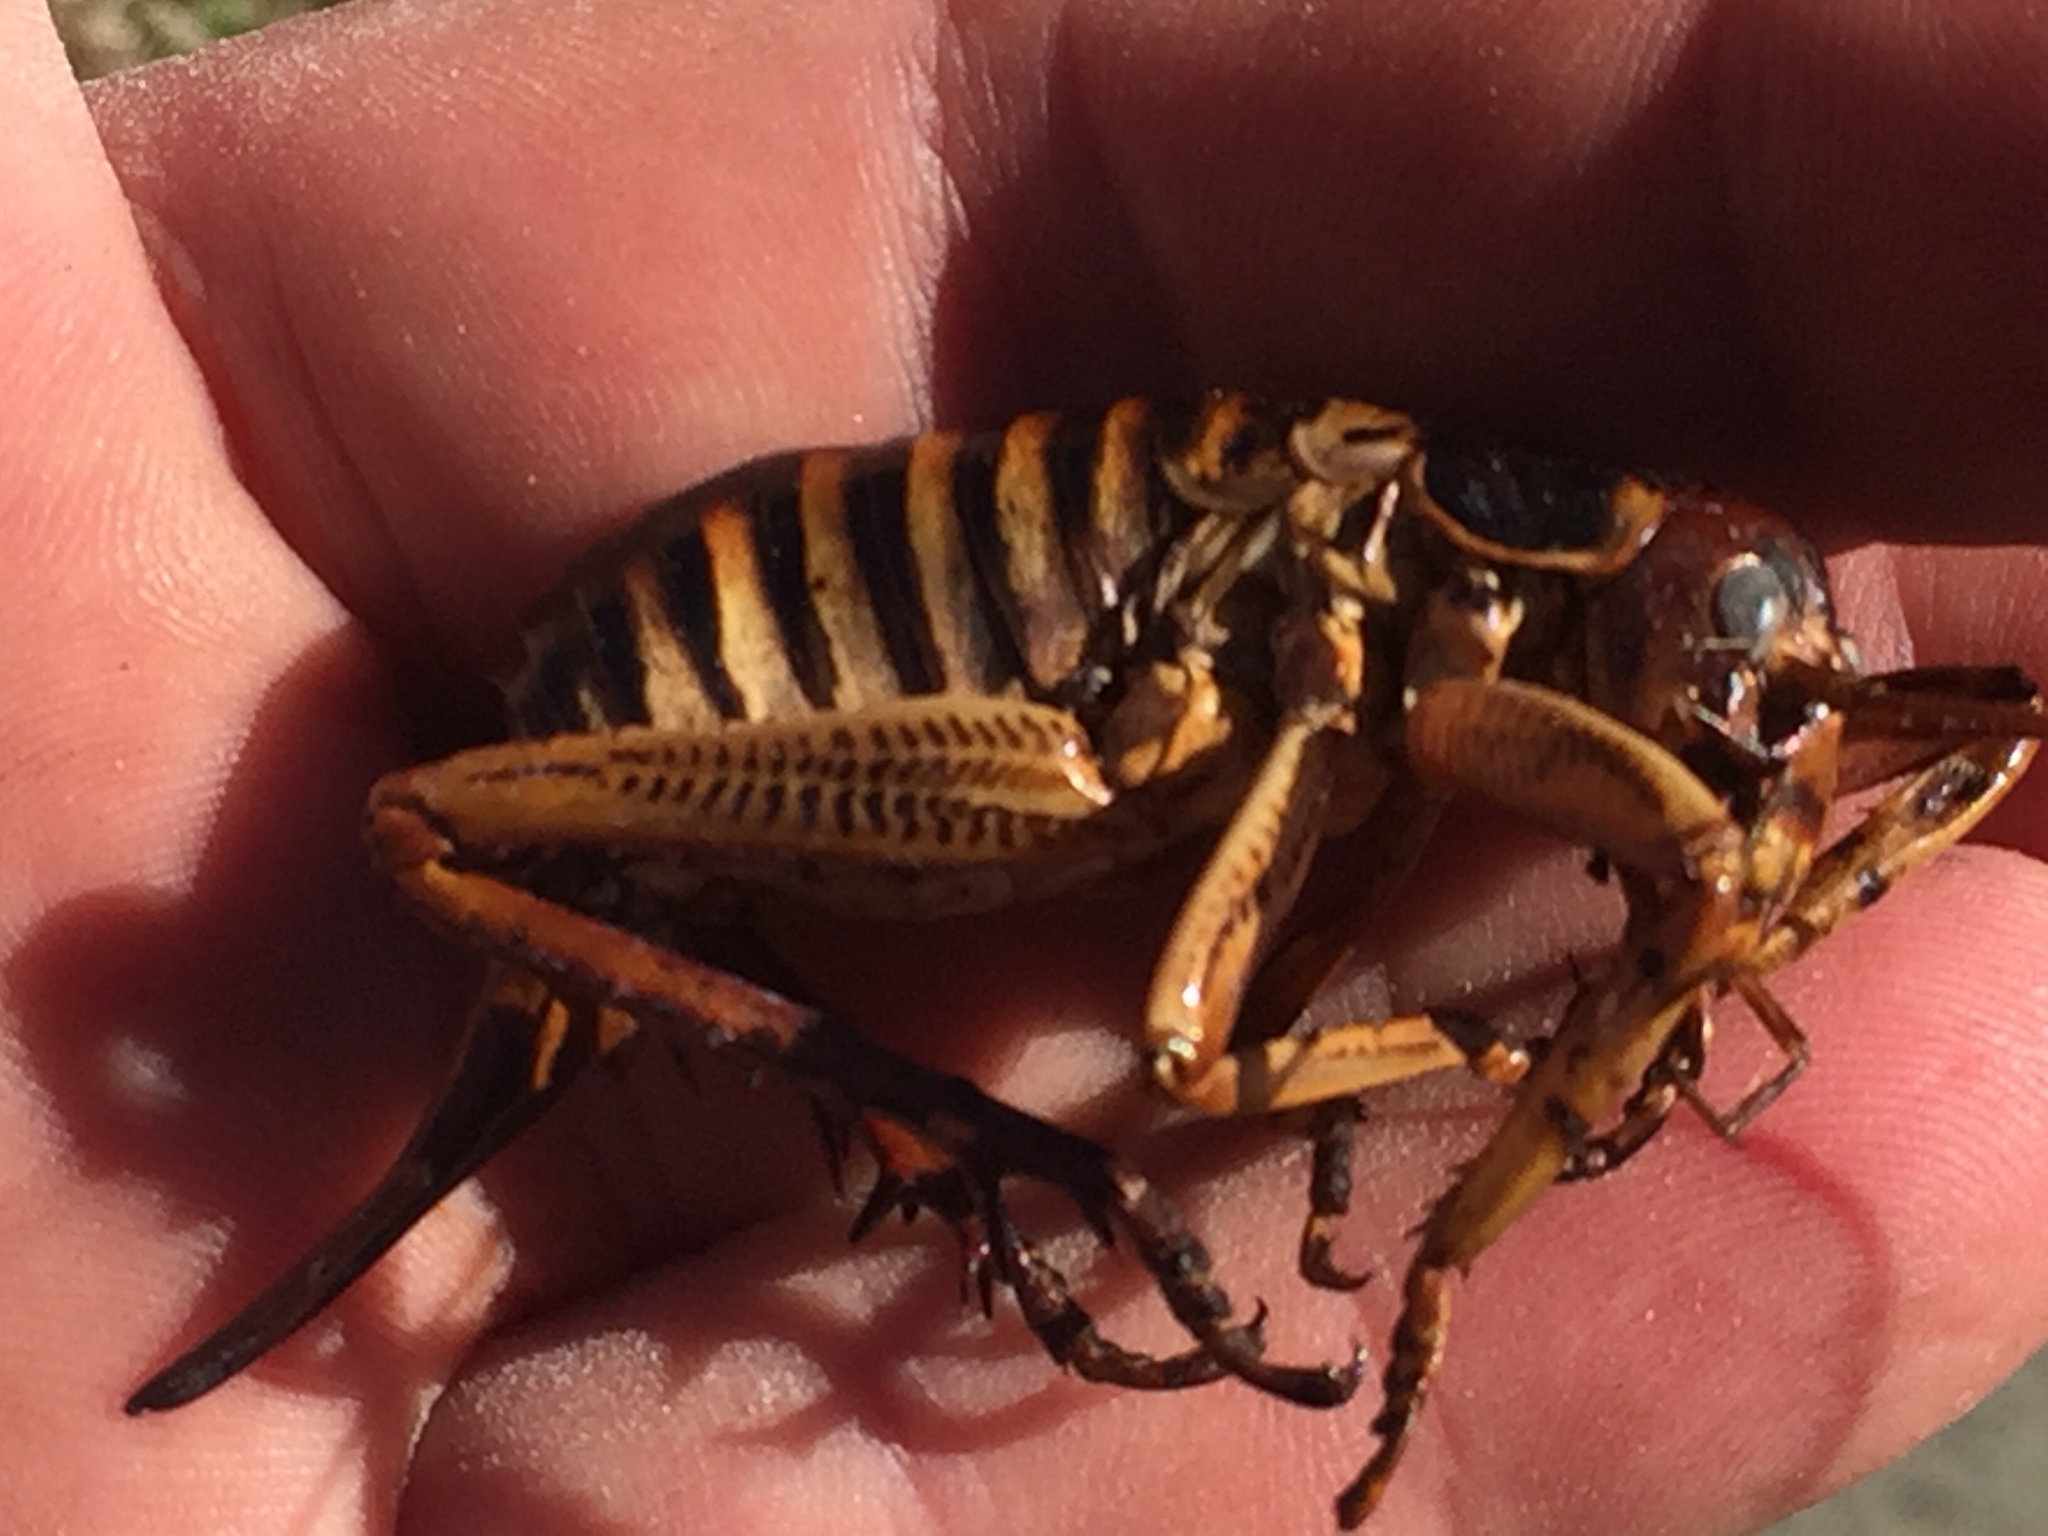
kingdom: Animalia
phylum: Arthropoda
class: Insecta
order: Orthoptera
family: Anostostomatidae
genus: Hemideina
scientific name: Hemideina crassidens
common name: Wellington tree weta
